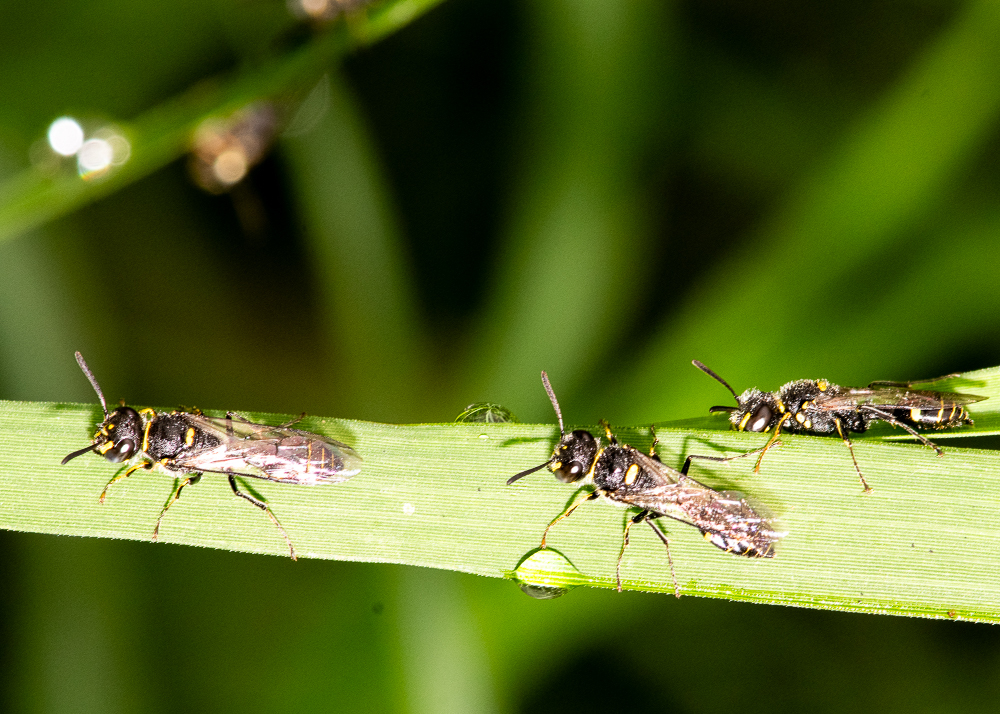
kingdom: Animalia
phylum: Arthropoda
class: Insecta
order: Hymenoptera
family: Crabronidae
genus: Philanthus
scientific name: Philanthus nepalensis
